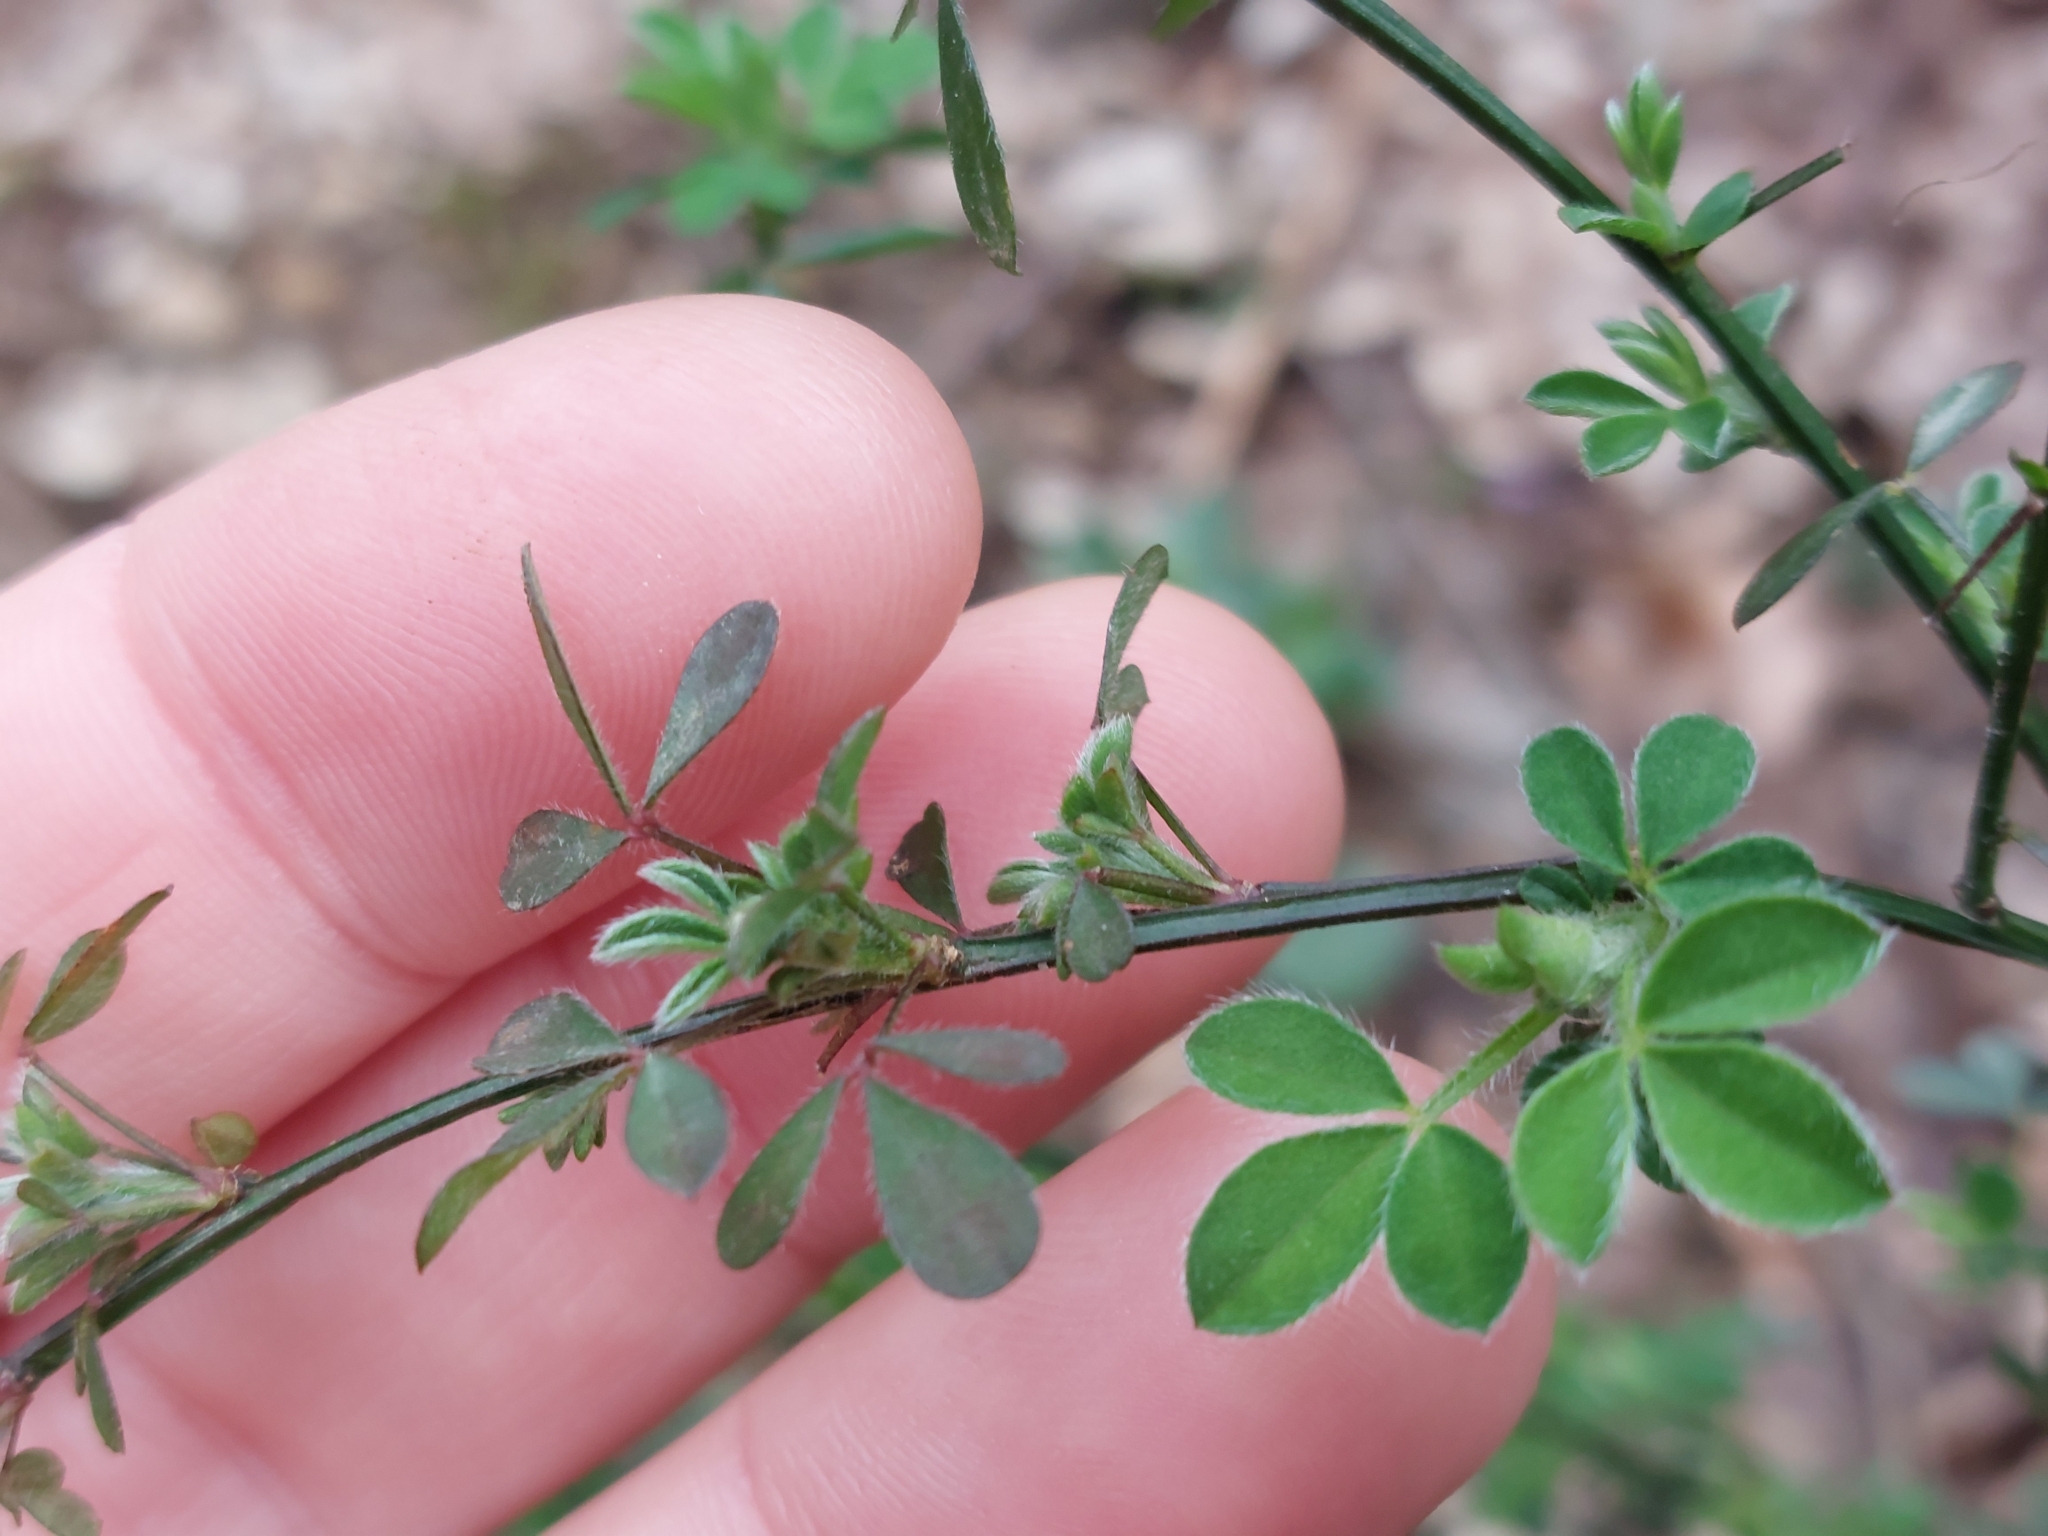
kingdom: Plantae
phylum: Tracheophyta
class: Magnoliopsida
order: Fabales
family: Fabaceae
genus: Cytisus
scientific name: Cytisus scoparius
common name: Scotch broom
